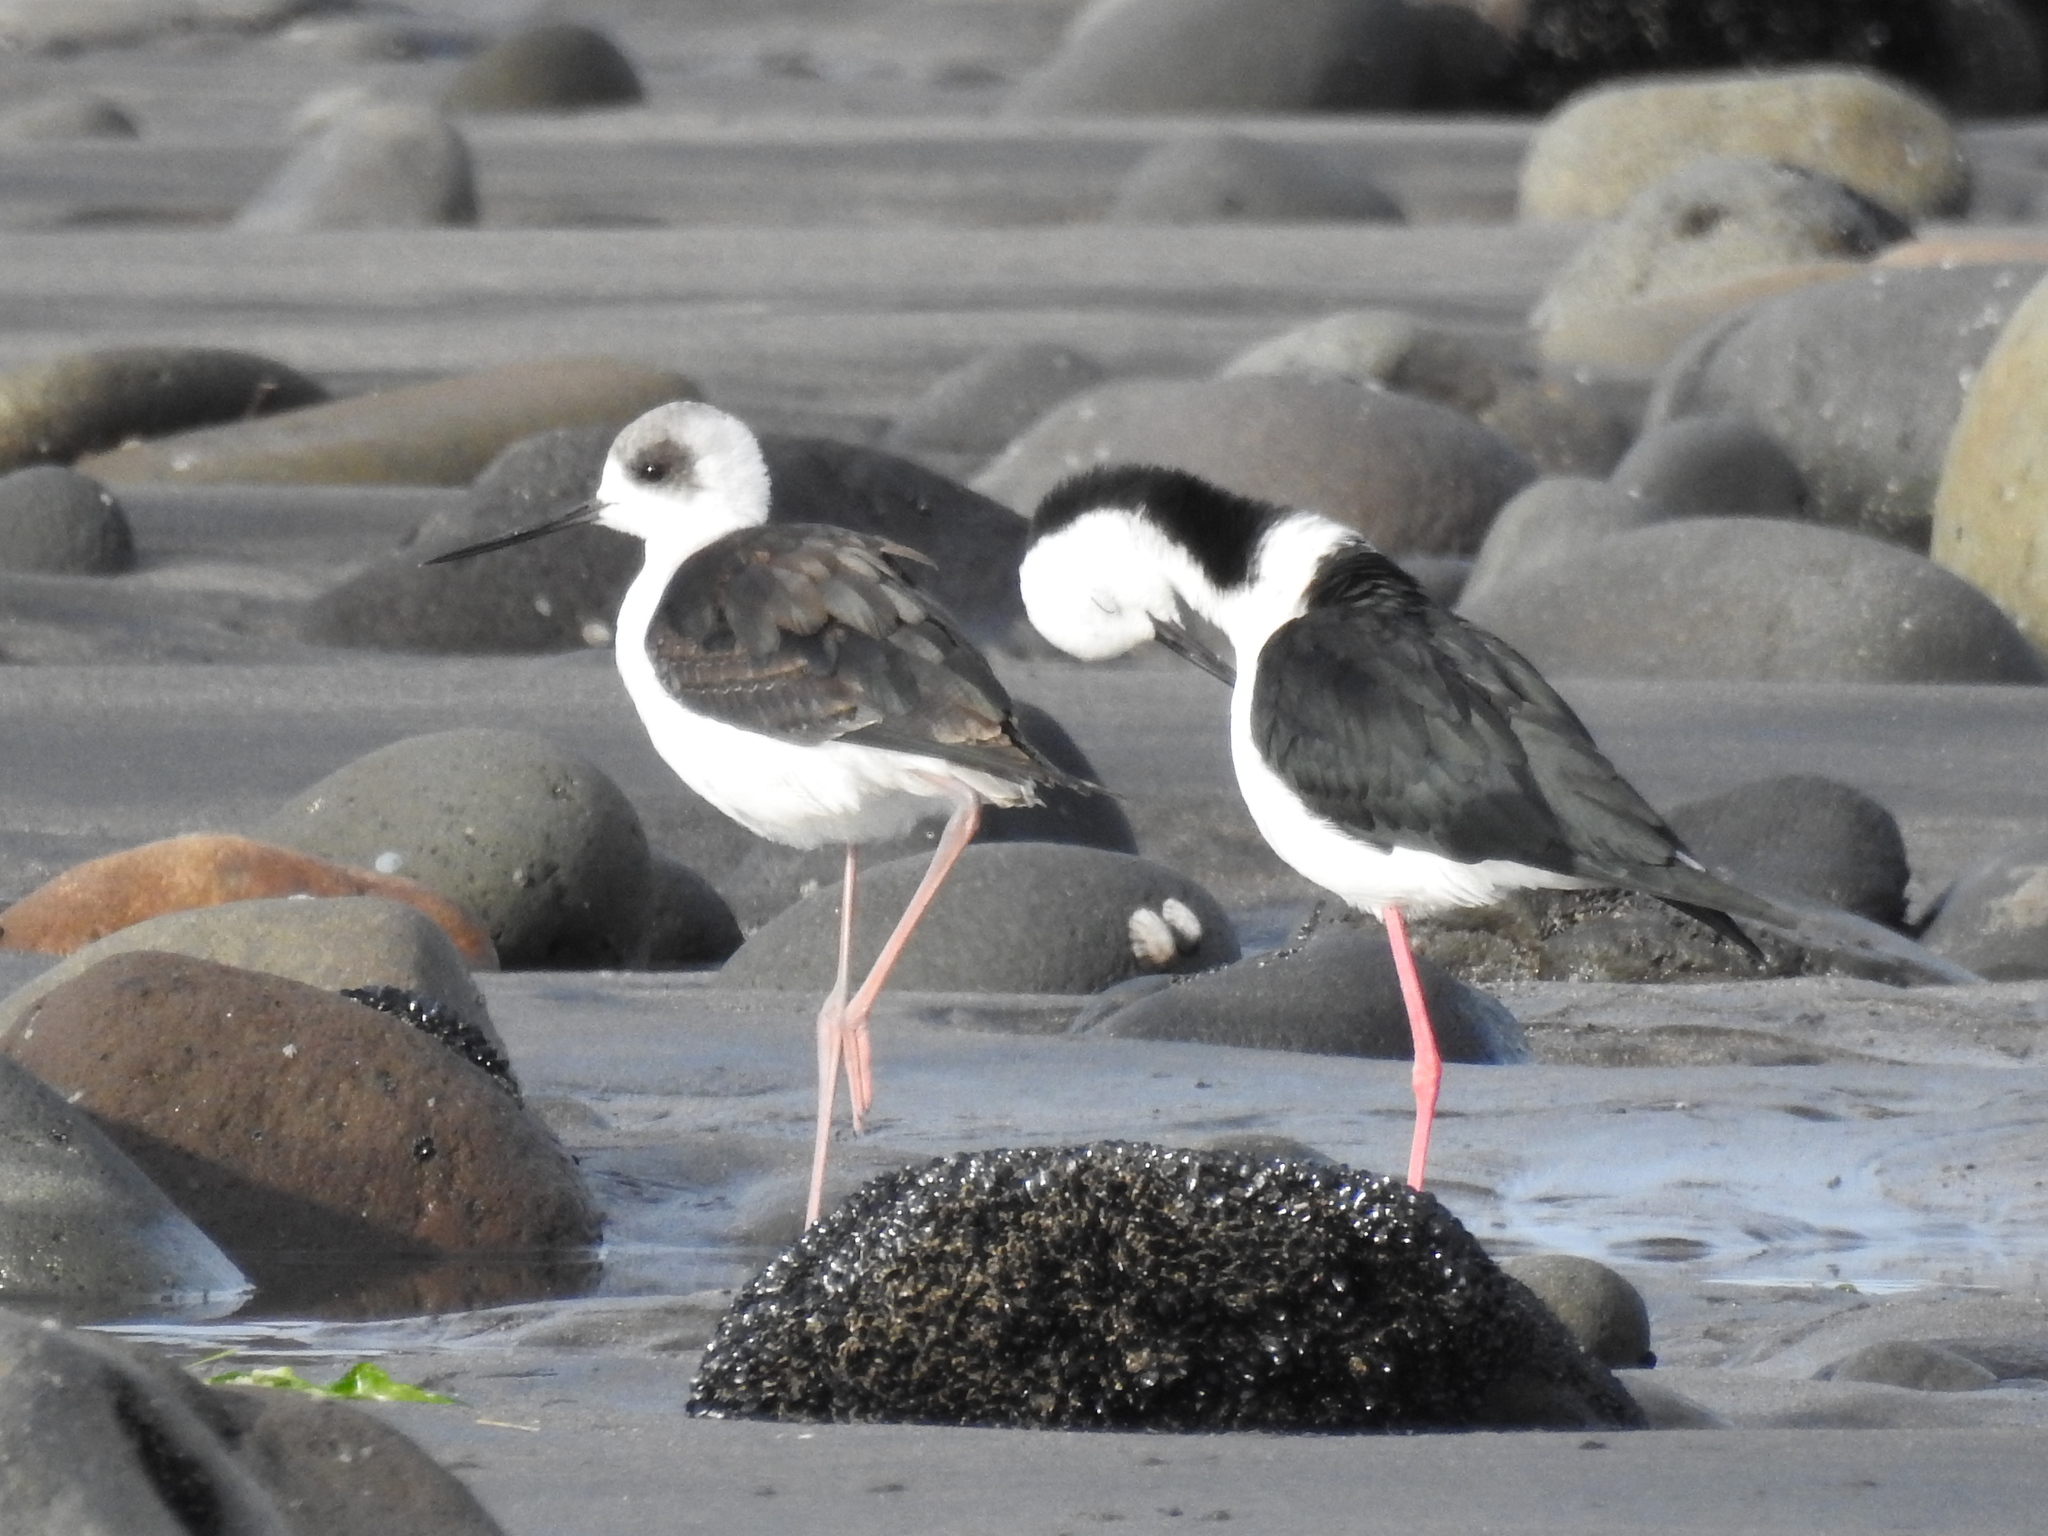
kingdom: Animalia
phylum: Chordata
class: Aves
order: Charadriiformes
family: Recurvirostridae
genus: Himantopus
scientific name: Himantopus leucocephalus
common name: White-headed stilt
